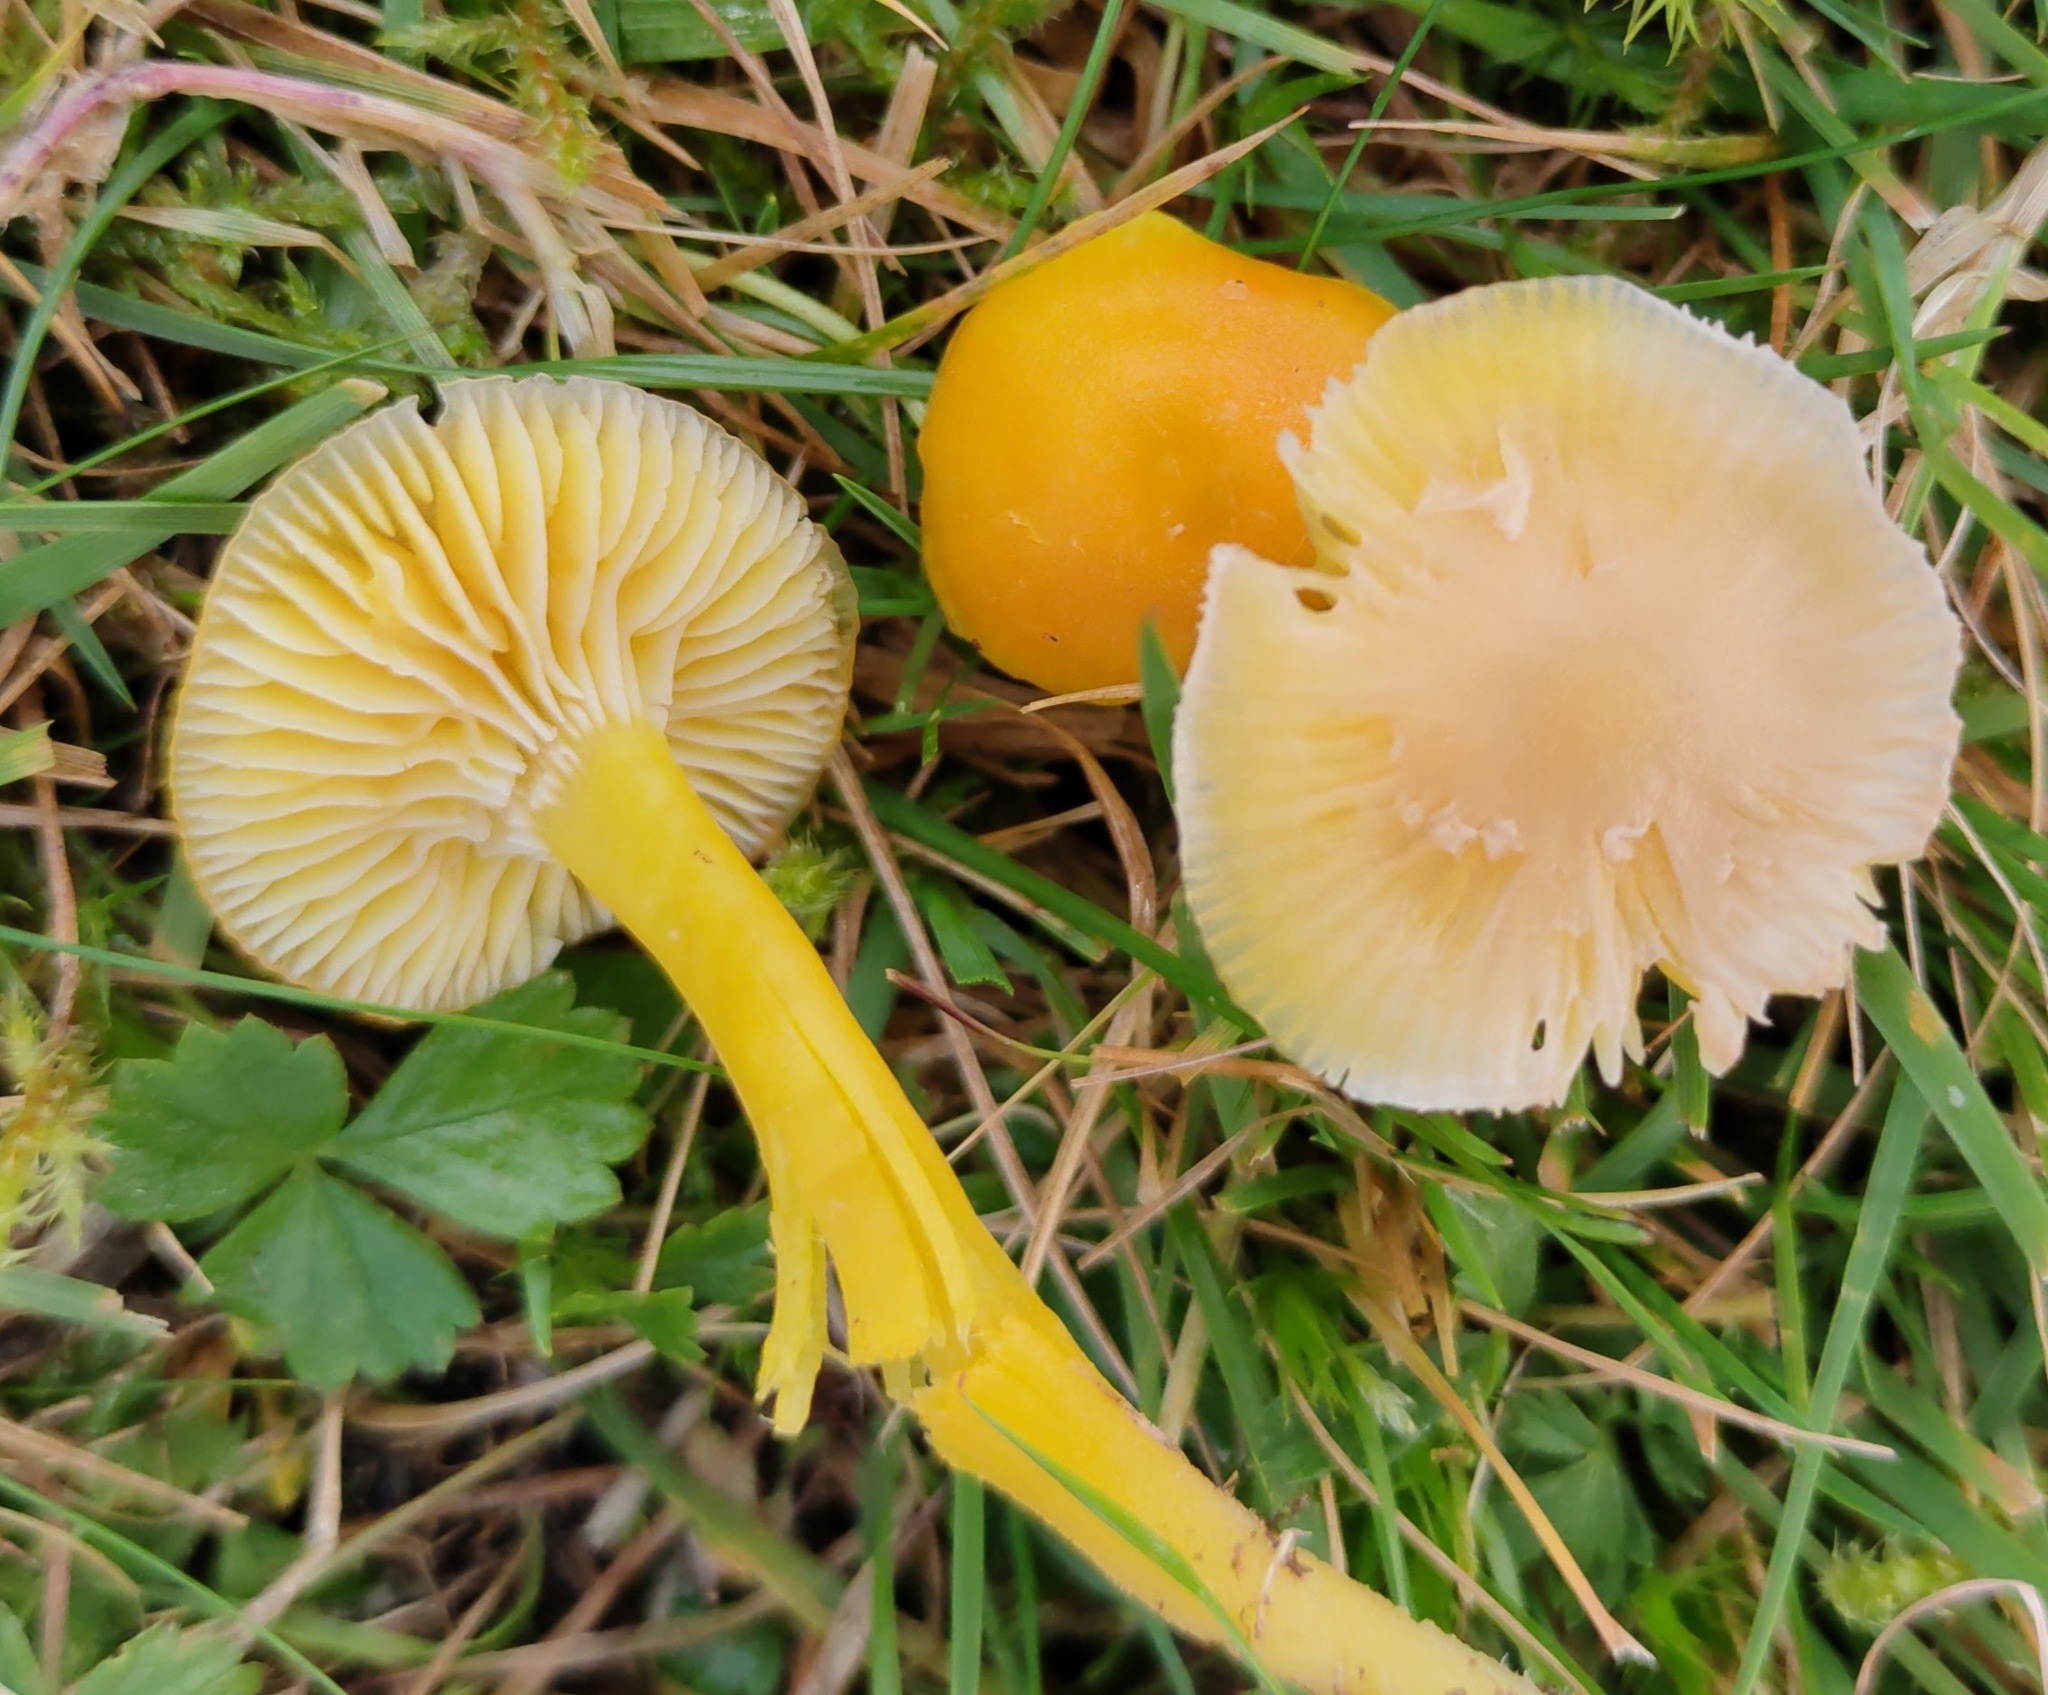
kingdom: Fungi
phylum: Basidiomycota
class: Agaricomycetes
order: Agaricales
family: Hygrophoraceae
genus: Hygrocybe
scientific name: Hygrocybe ceracea
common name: Butter waxcap
